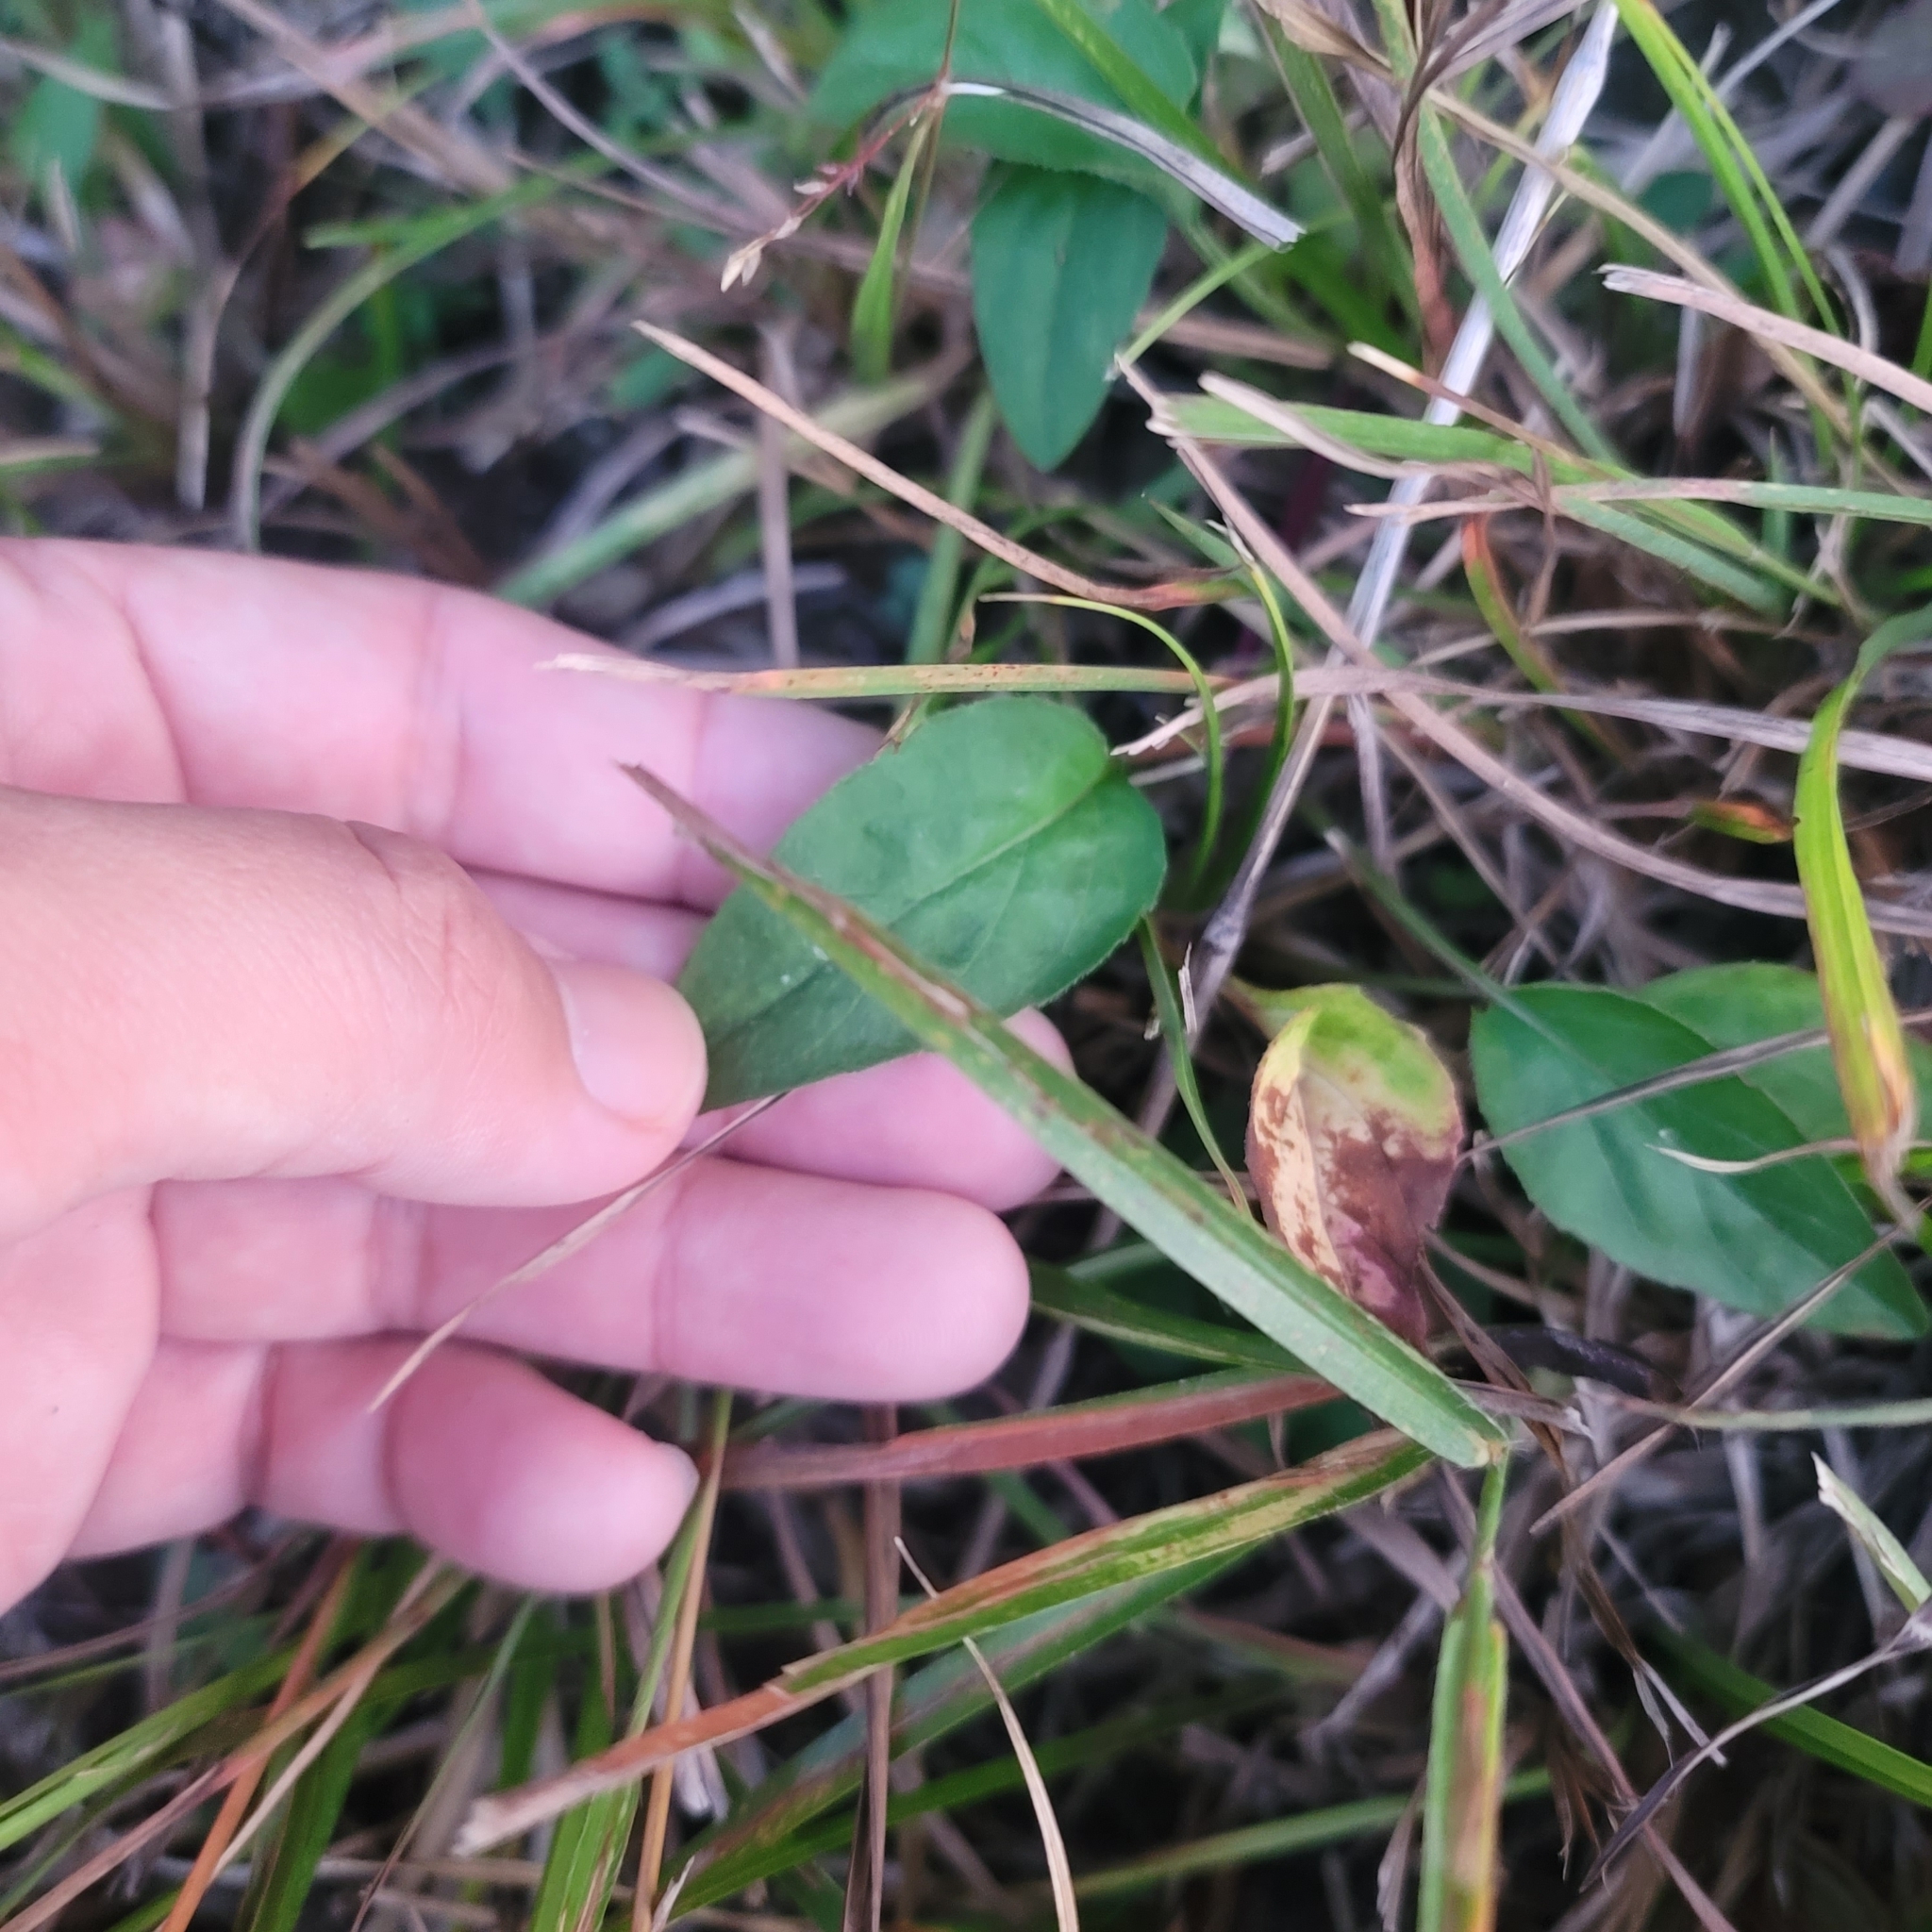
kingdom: Plantae
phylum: Tracheophyta
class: Magnoliopsida
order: Lamiales
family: Lamiaceae
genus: Prunella
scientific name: Prunella vulgaris
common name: Heal-all
